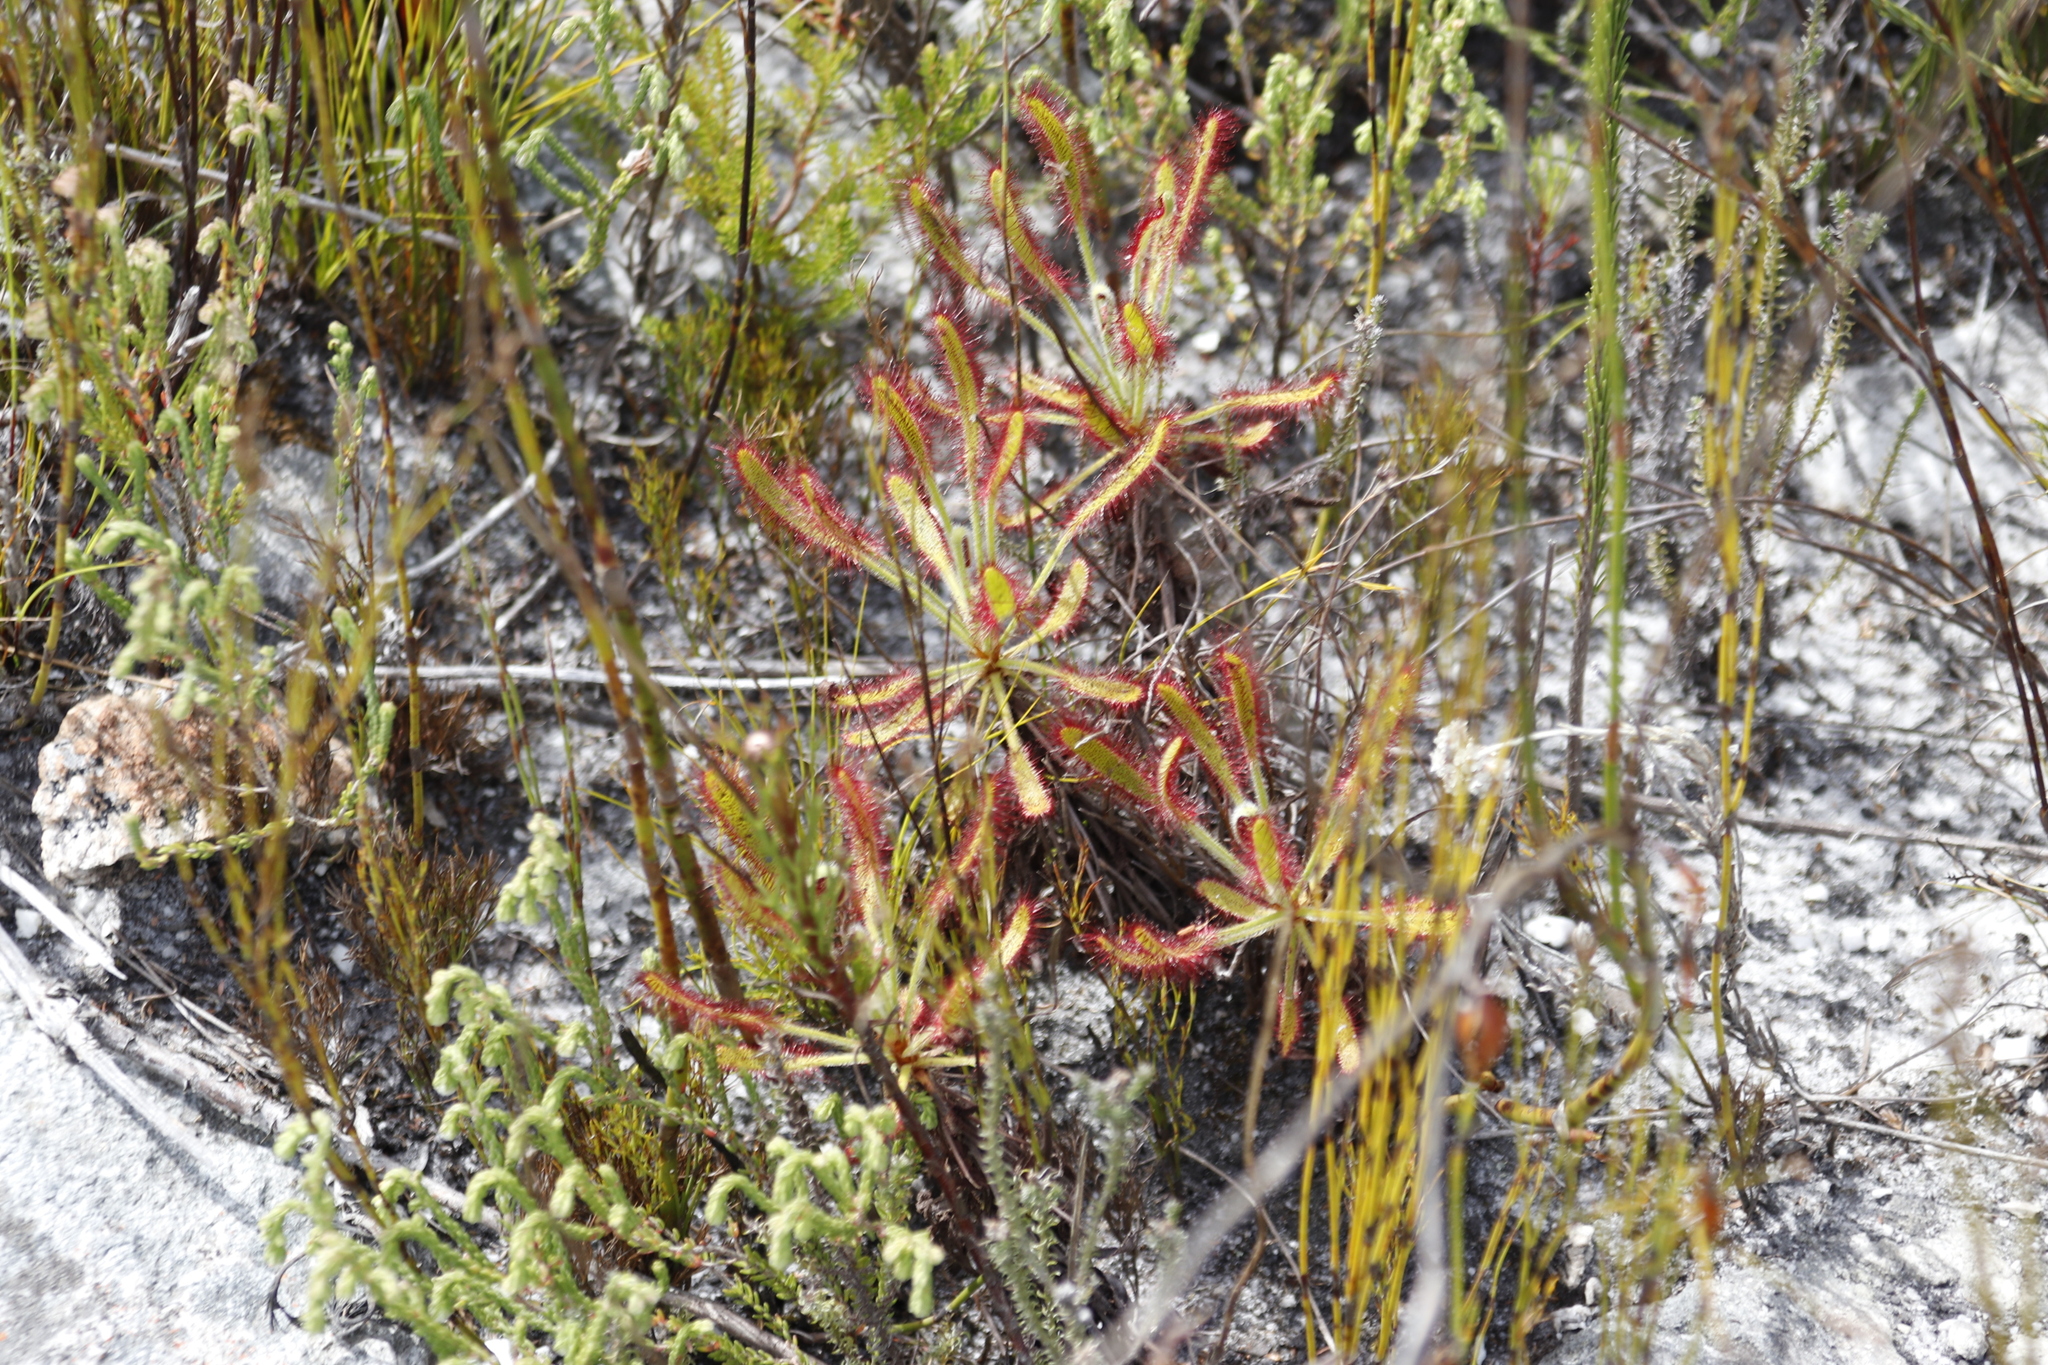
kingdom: Plantae
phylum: Tracheophyta
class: Magnoliopsida
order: Caryophyllales
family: Droseraceae
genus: Drosera
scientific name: Drosera ramentacea
